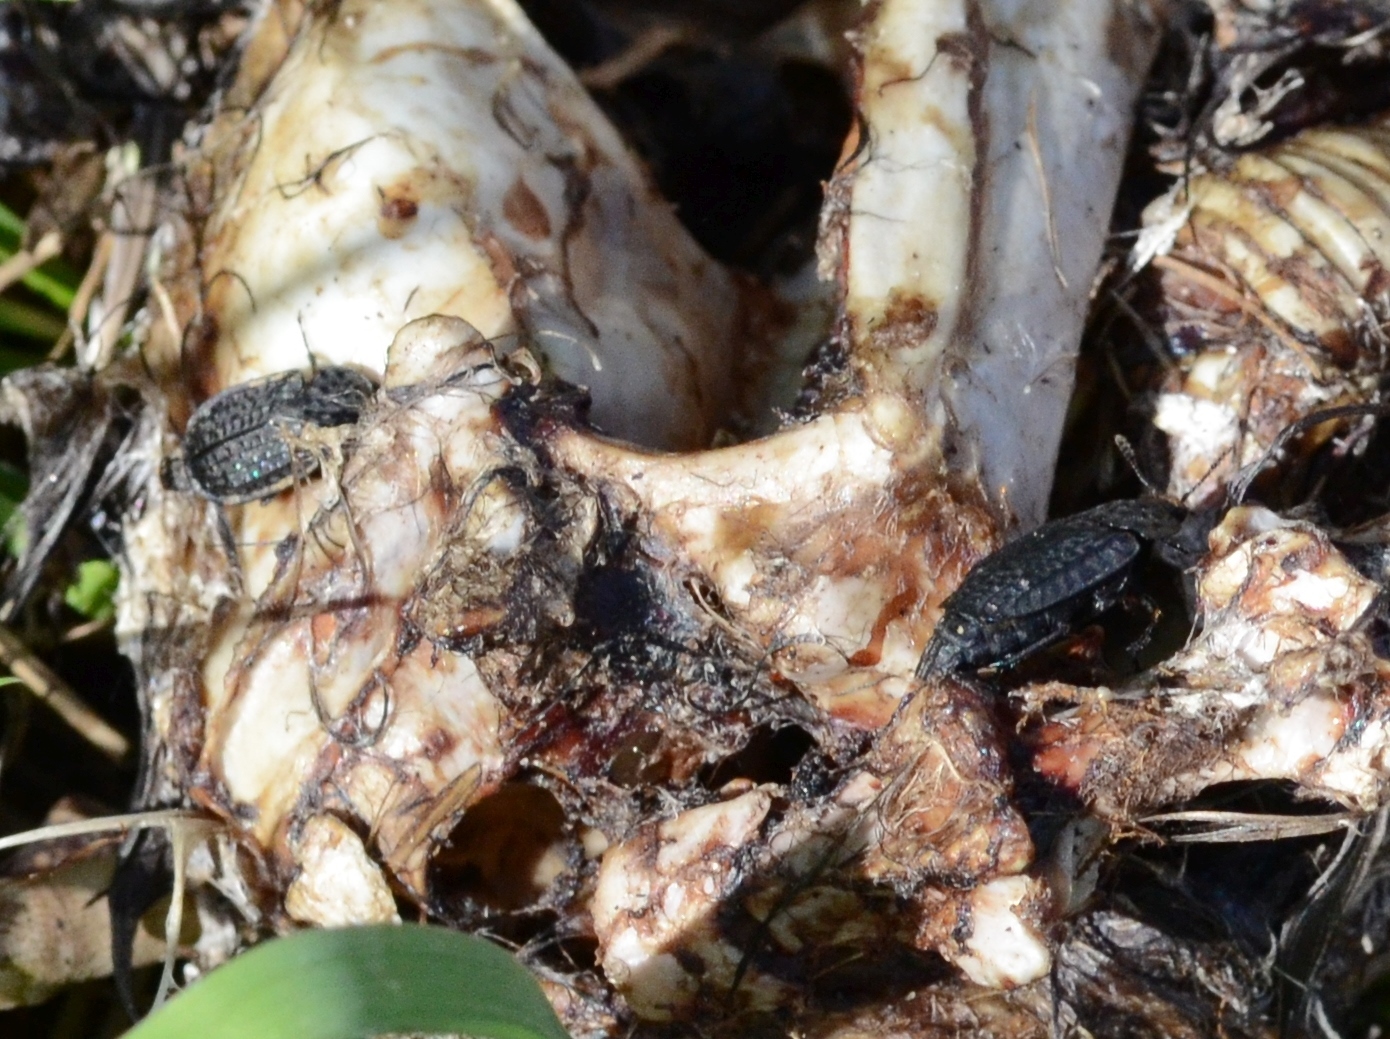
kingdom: Animalia
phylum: Arthropoda
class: Insecta
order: Coleoptera
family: Staphylinidae
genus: Thanatophilus
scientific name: Thanatophilus rugosus
